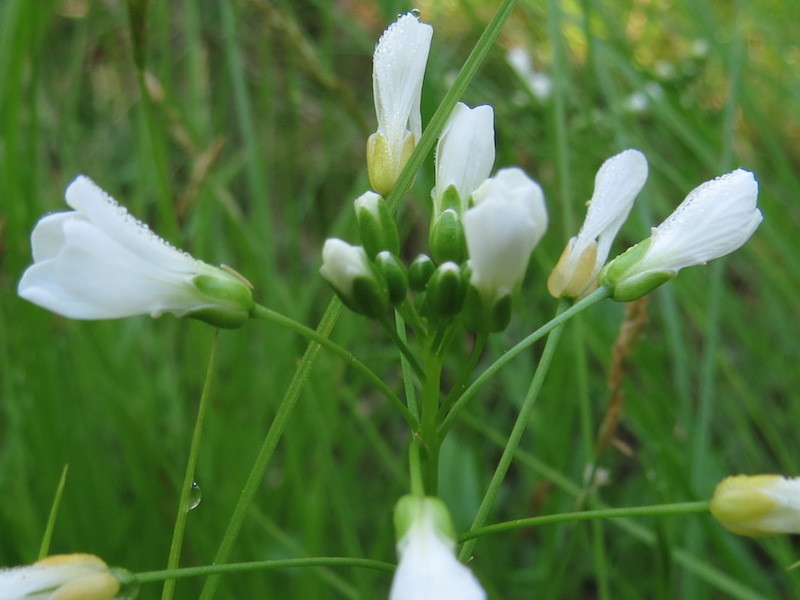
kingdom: Plantae
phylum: Tracheophyta
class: Magnoliopsida
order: Brassicales
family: Brassicaceae
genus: Cardamine
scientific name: Cardamine bulbosa
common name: Spring cress
